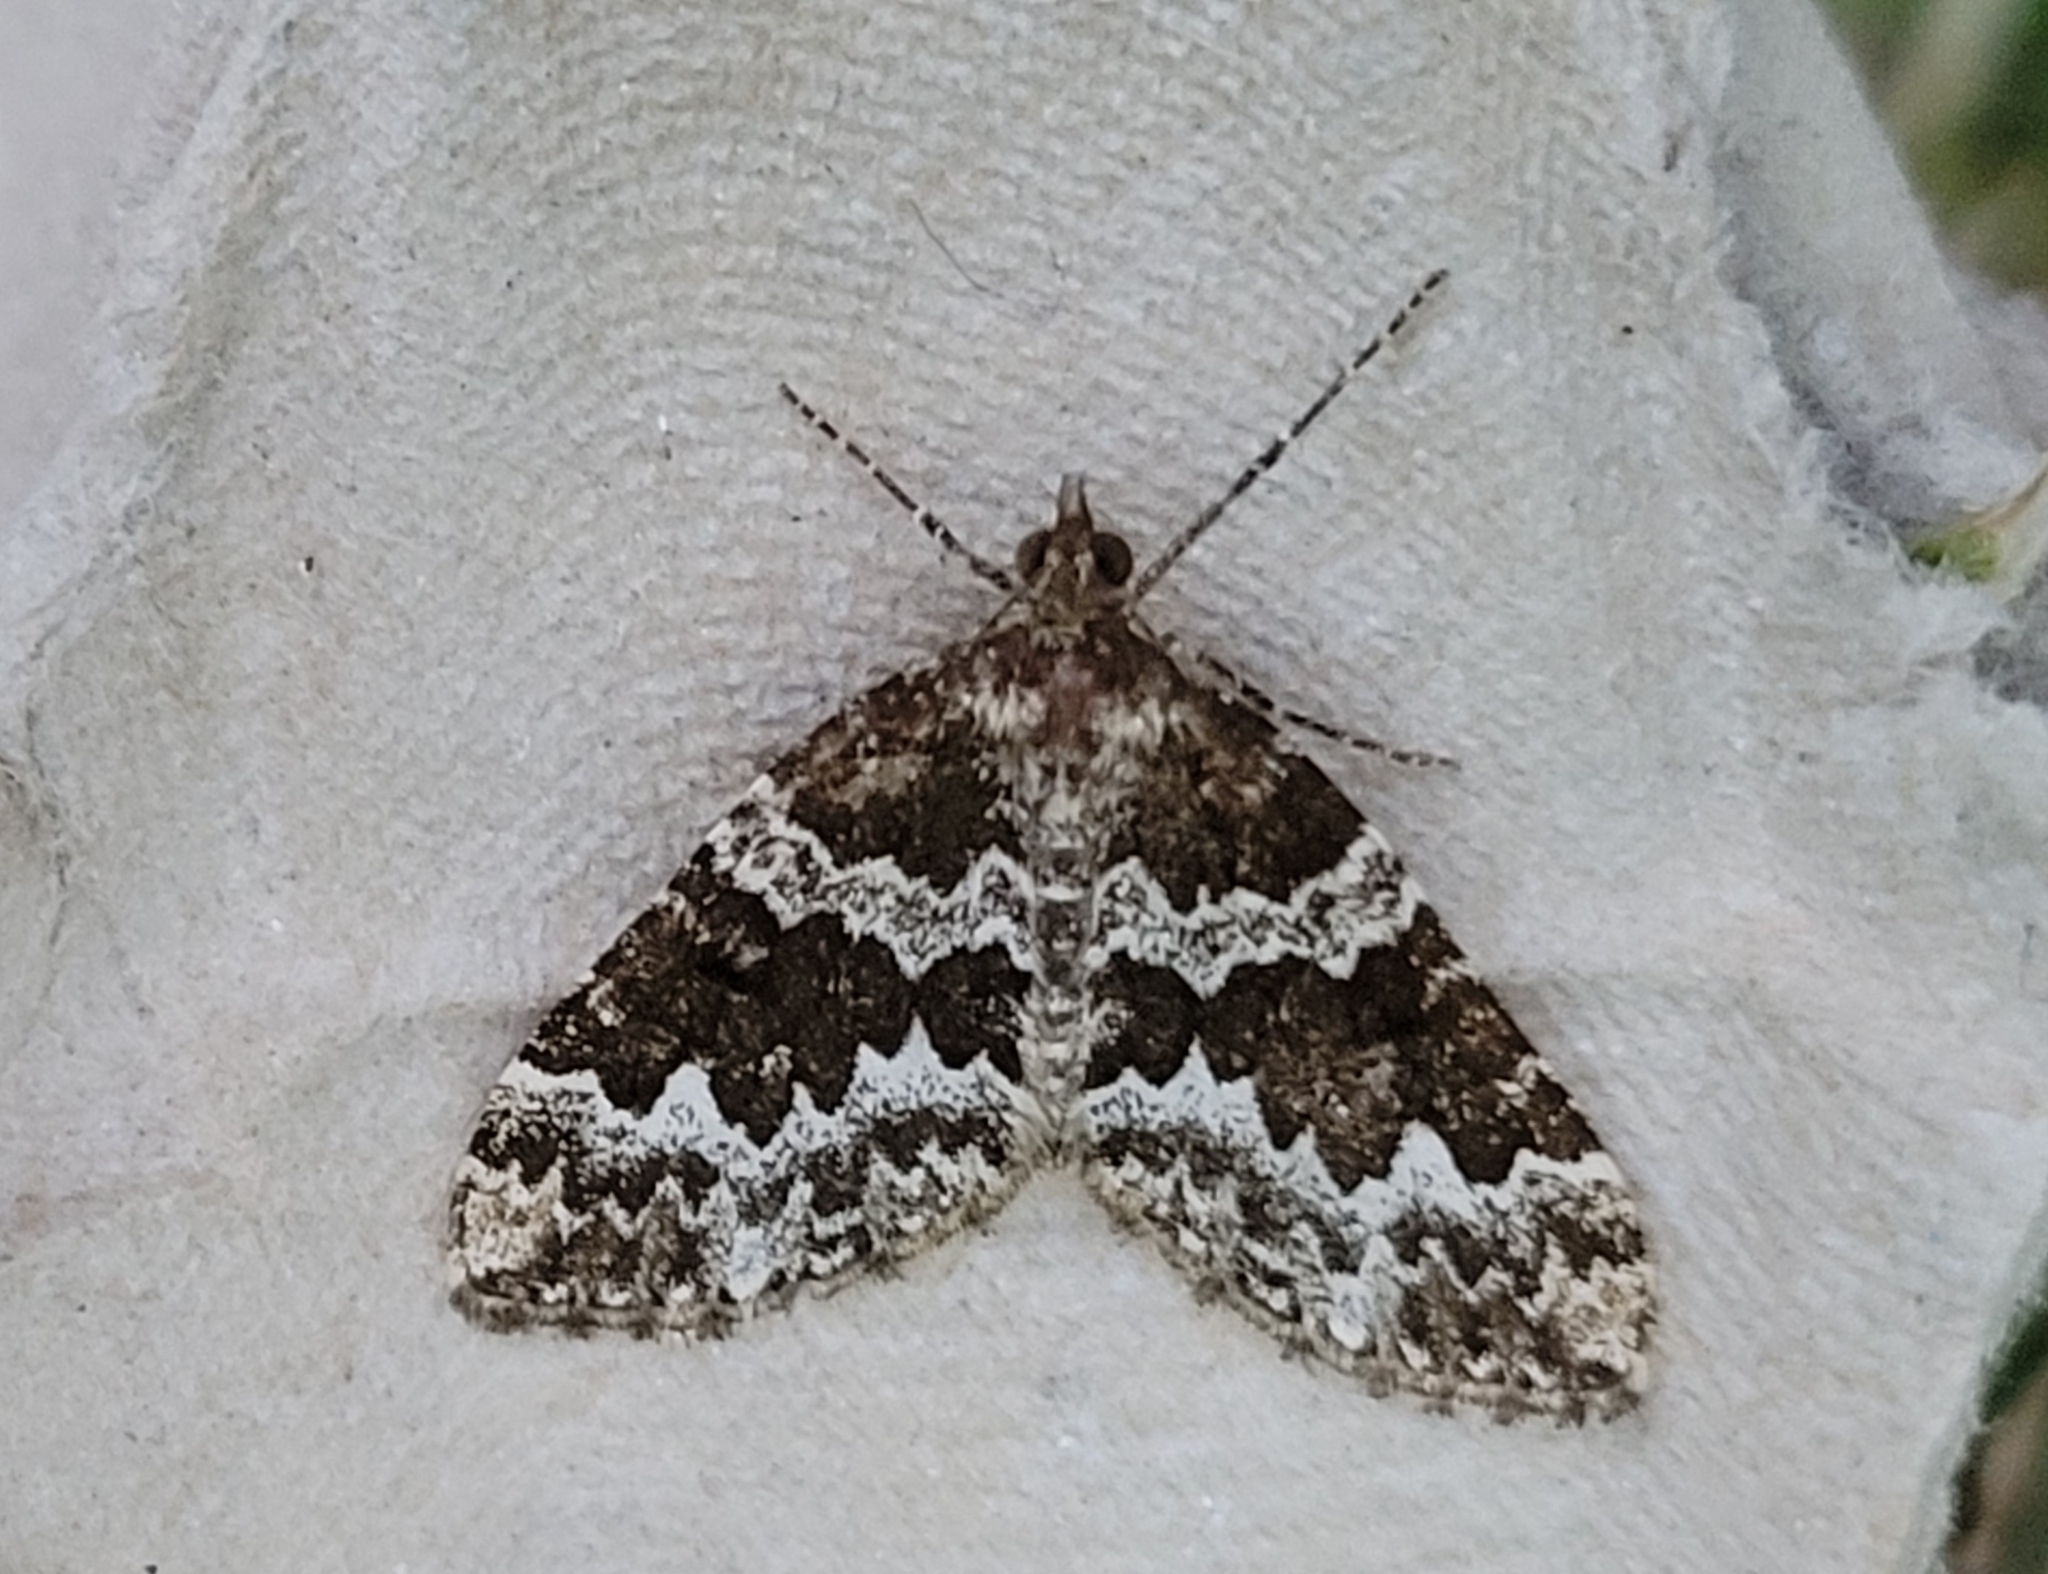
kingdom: Animalia
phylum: Arthropoda
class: Insecta
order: Lepidoptera
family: Geometridae
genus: Electrophaes
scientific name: Electrophaes corylata
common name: Broken-barred carpet
